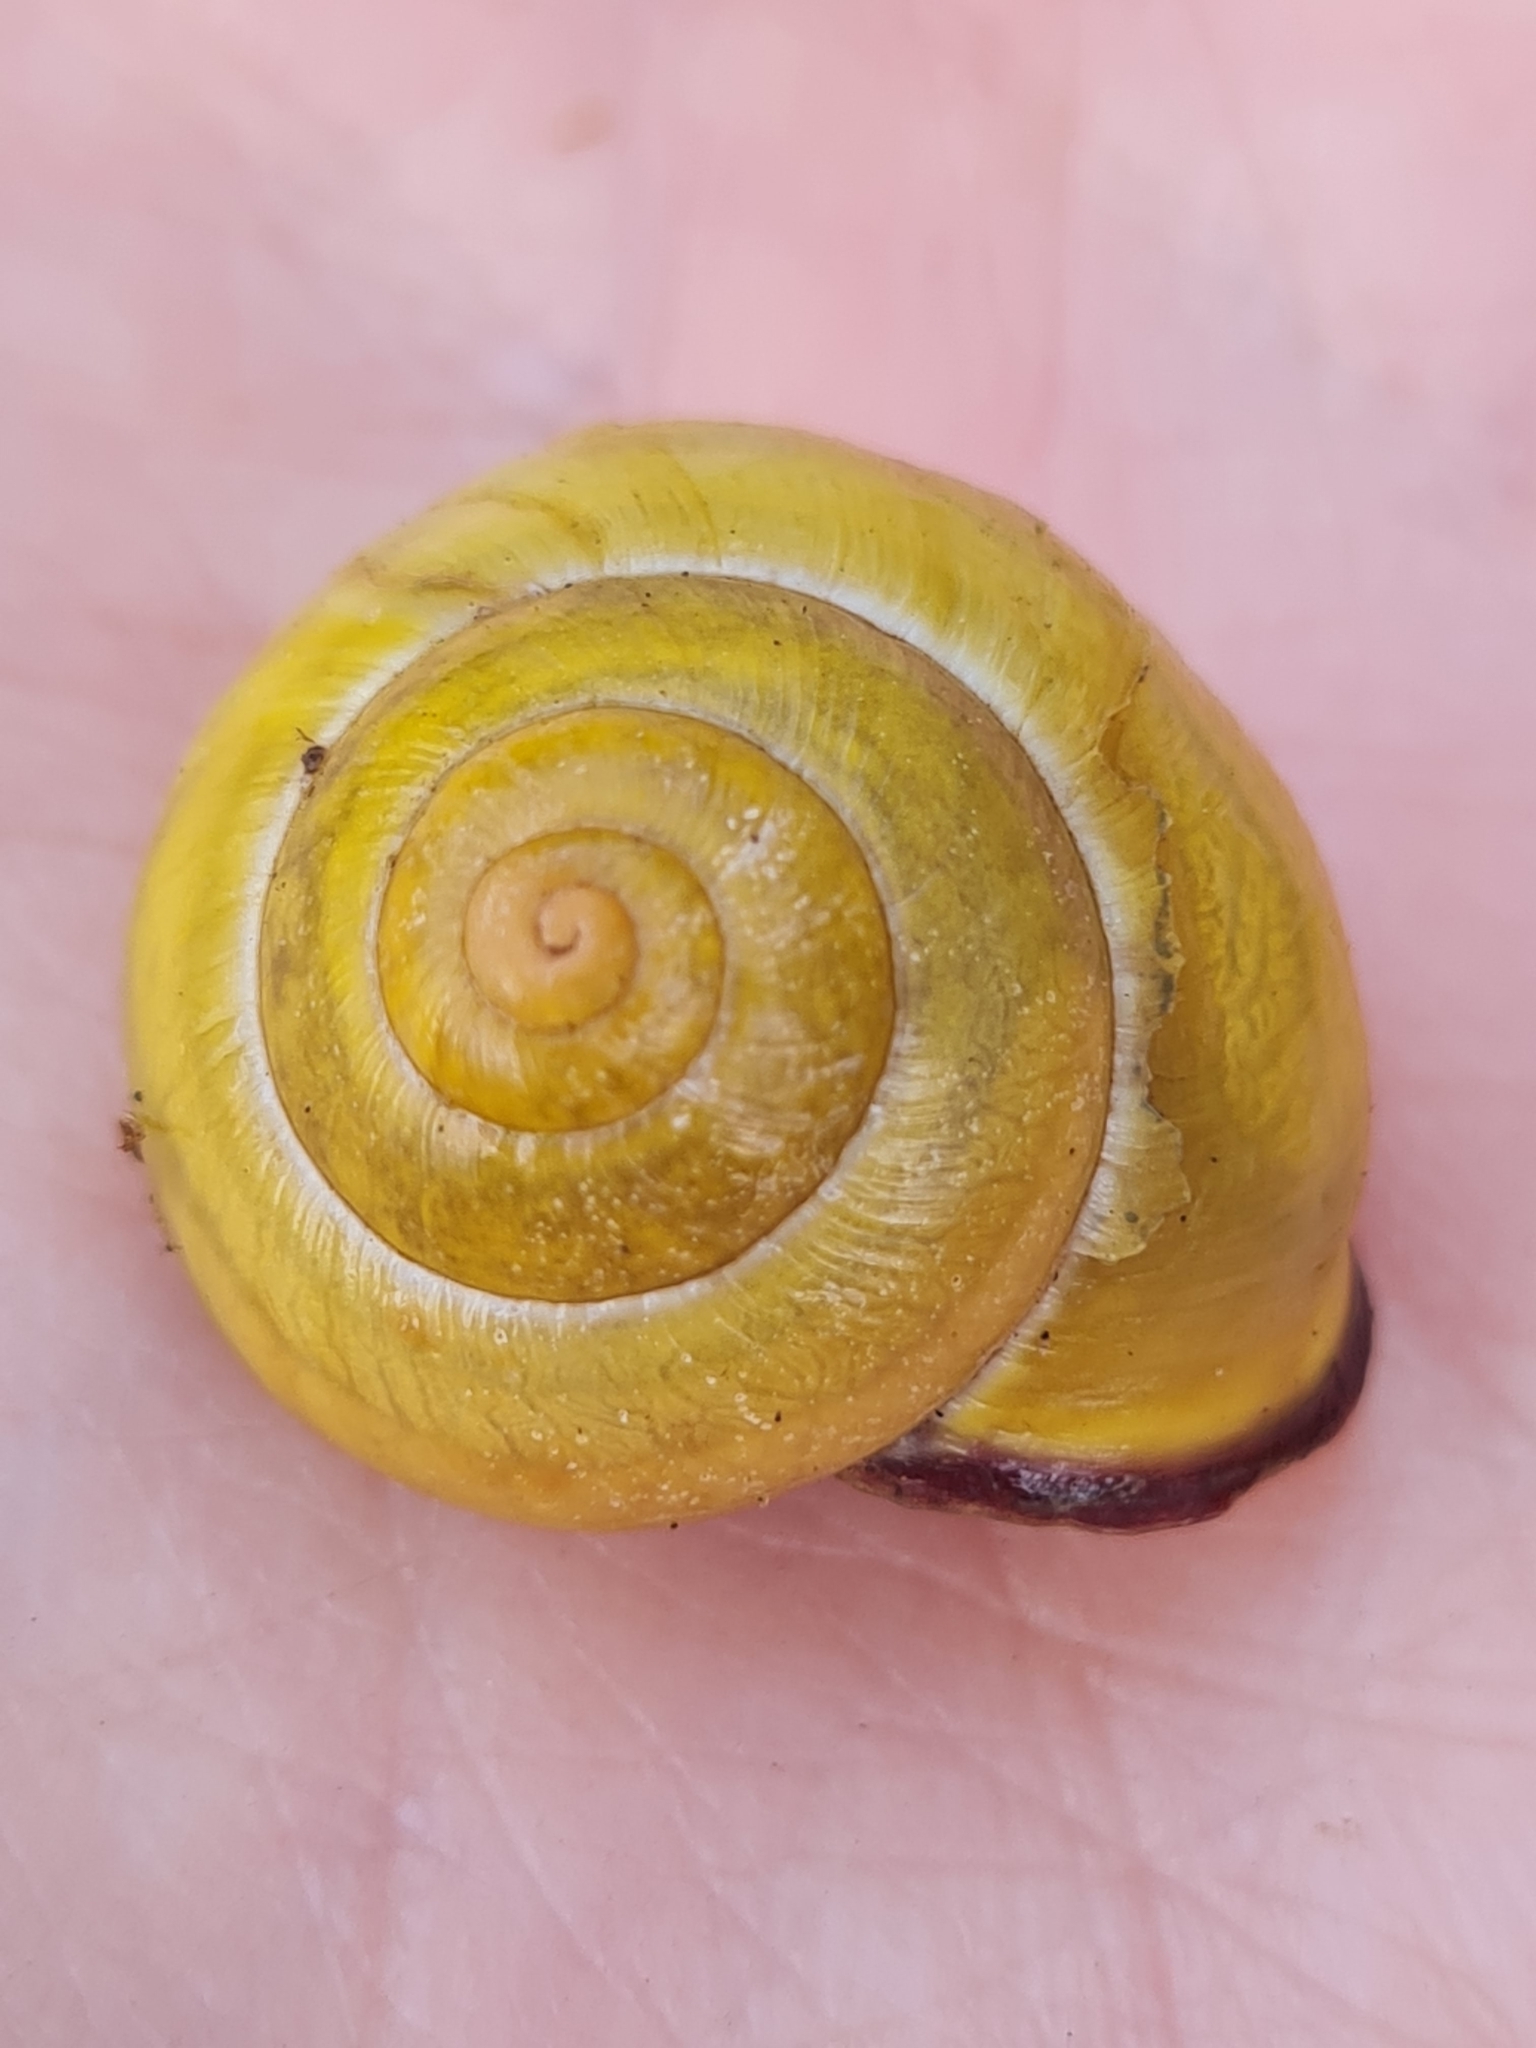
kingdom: Animalia
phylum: Mollusca
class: Gastropoda
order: Stylommatophora
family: Helicidae
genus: Cepaea
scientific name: Cepaea nemoralis
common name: Grovesnail
